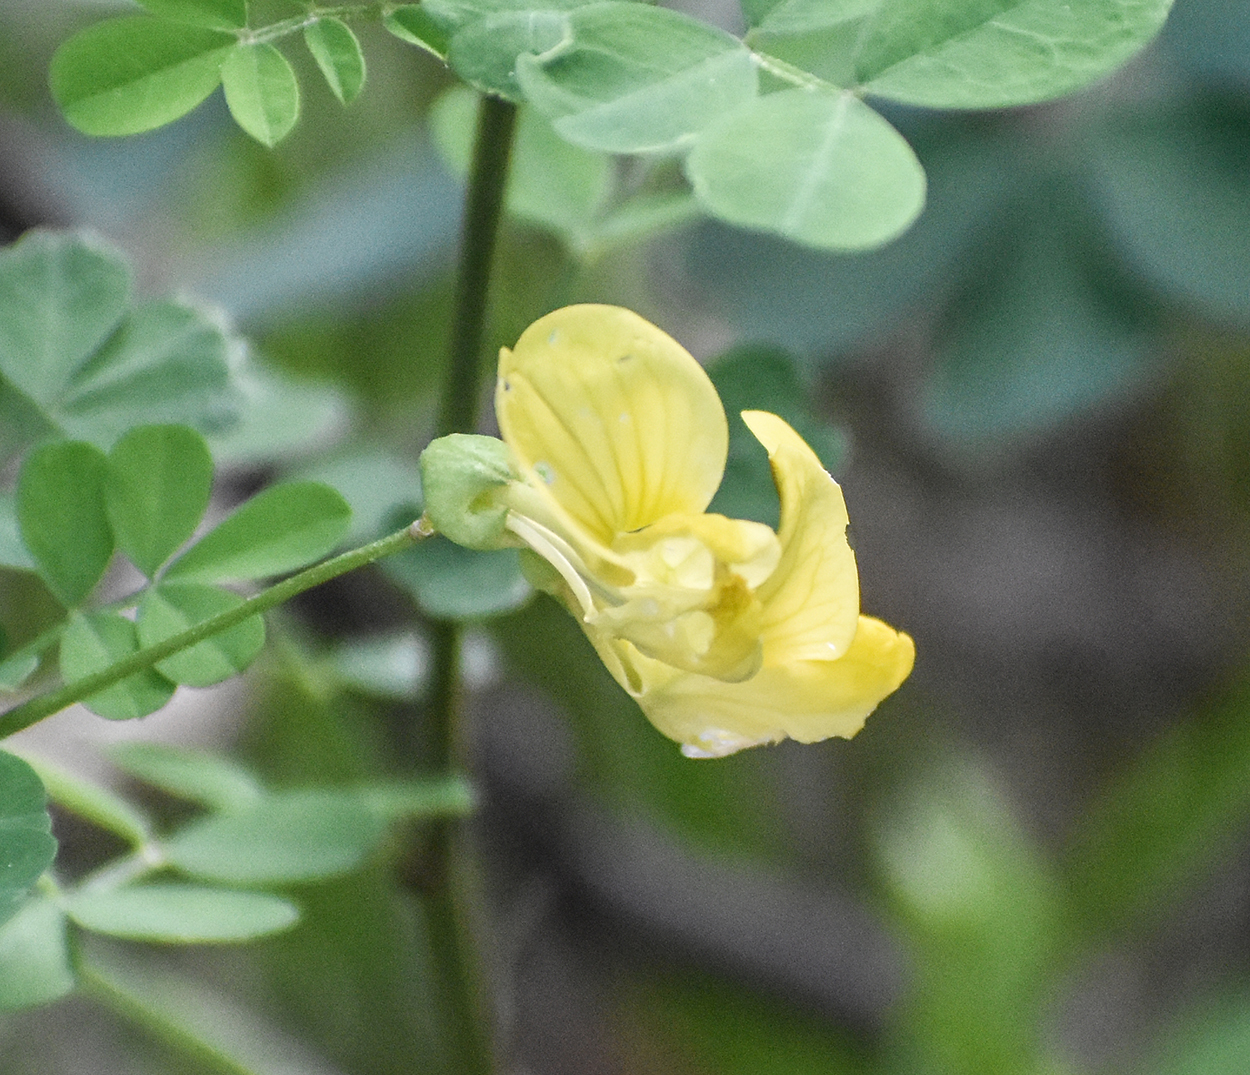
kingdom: Plantae
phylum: Tracheophyta
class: Magnoliopsida
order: Fabales
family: Fabaceae
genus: Hippocrepis
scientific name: Hippocrepis emerus
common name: Scorpion senna
